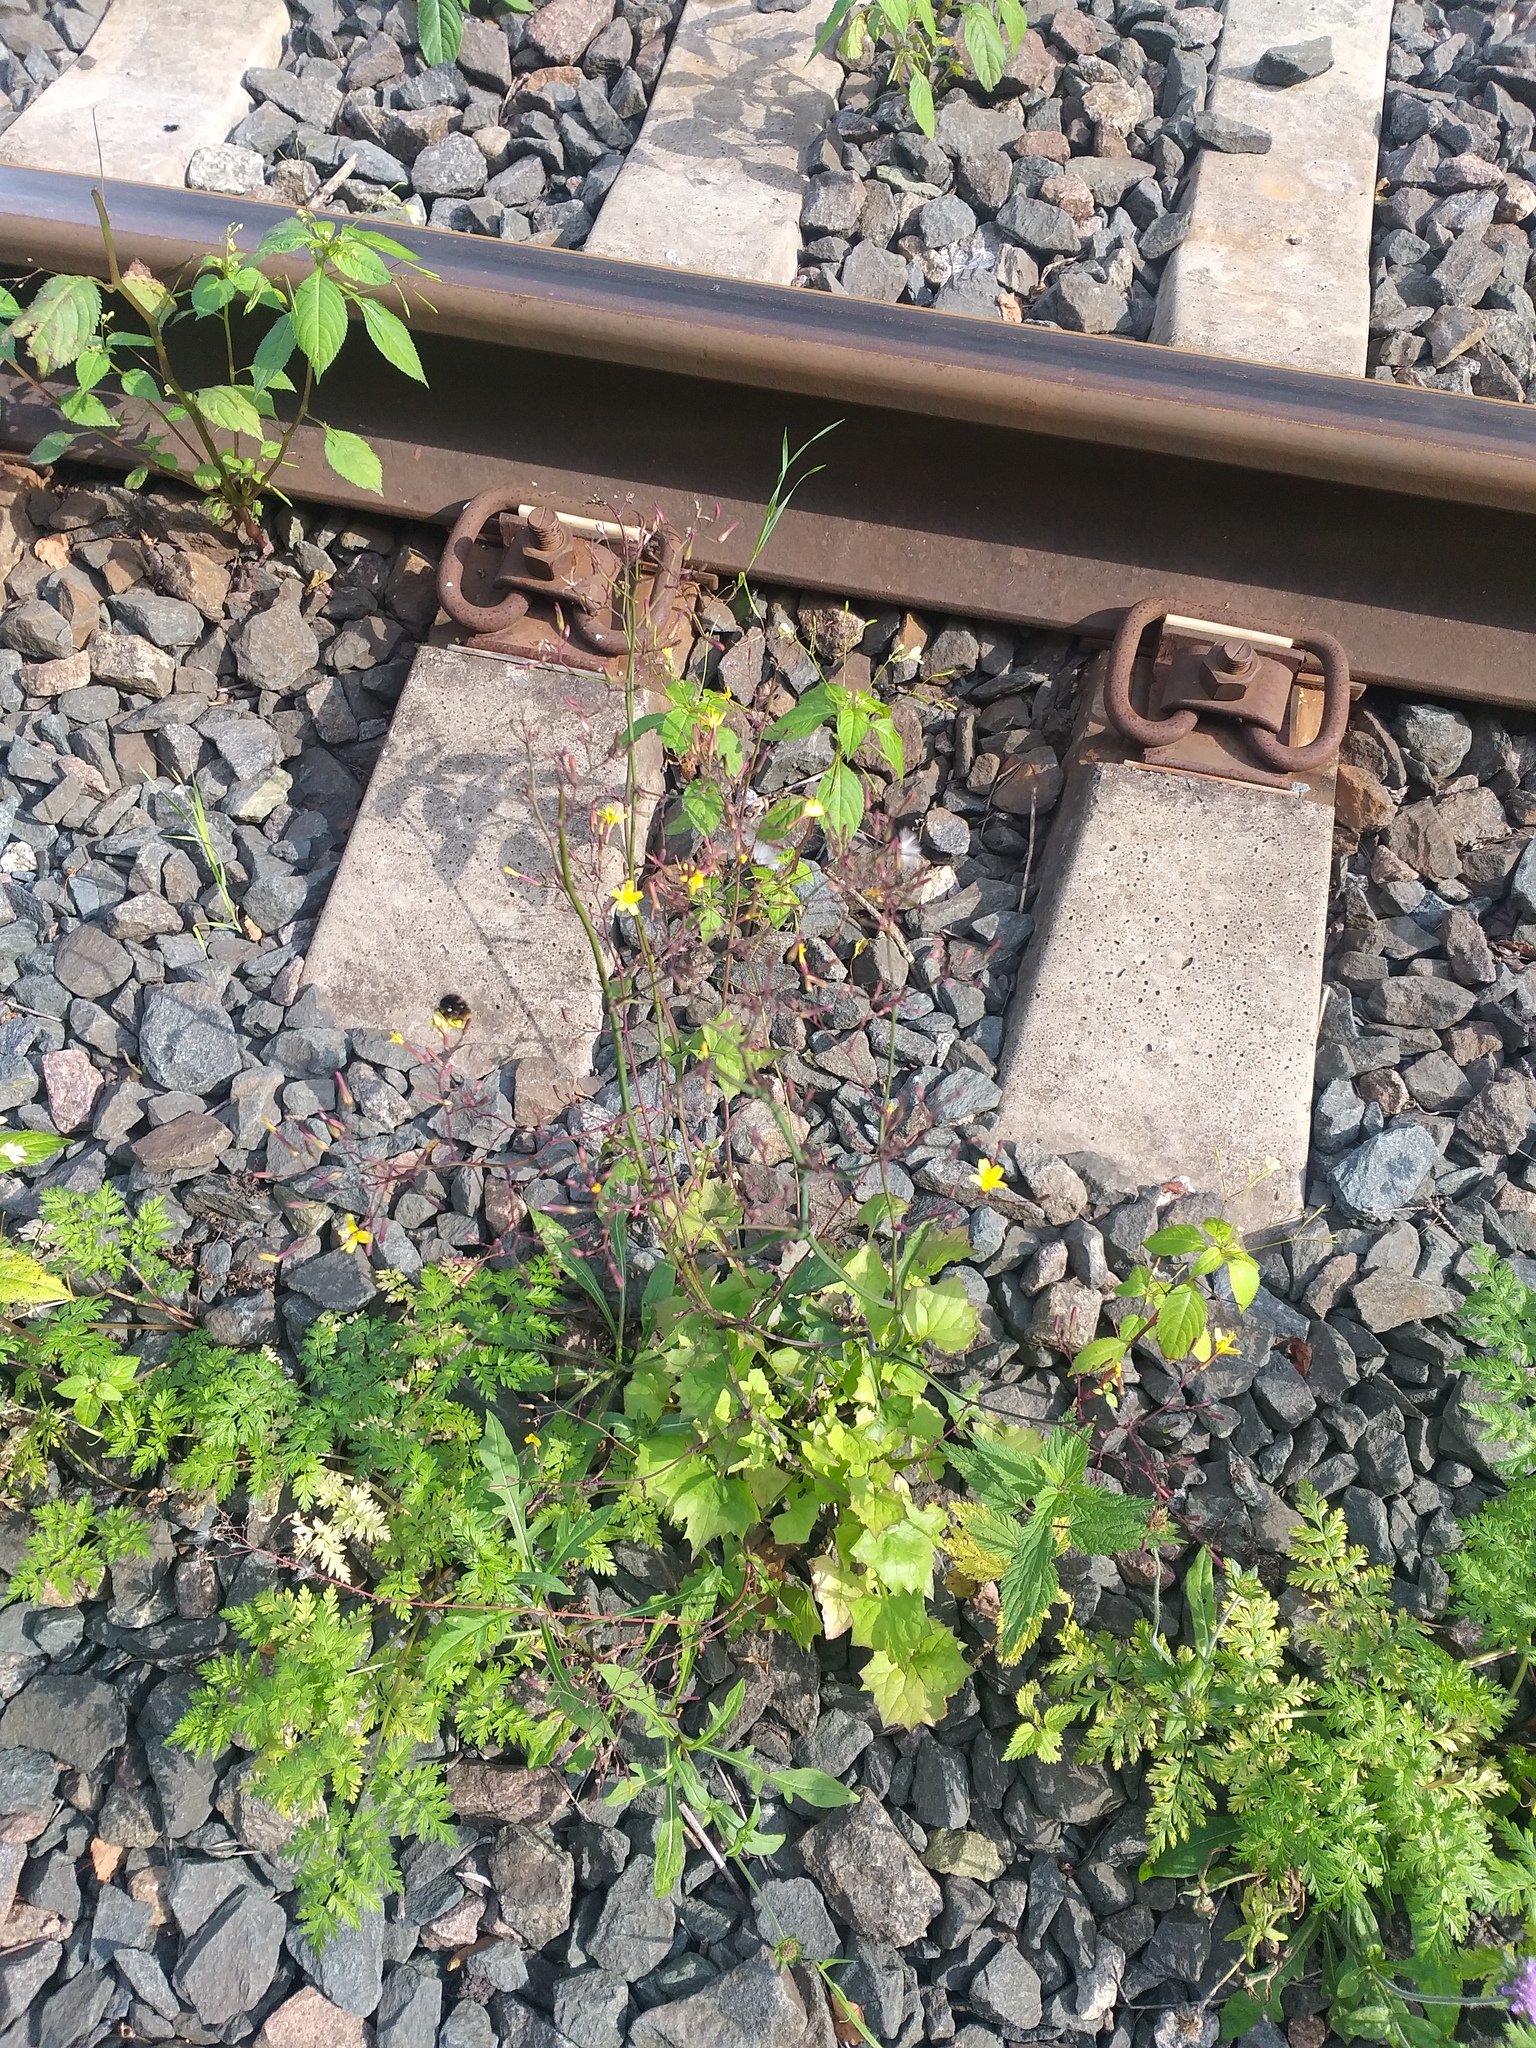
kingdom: Plantae
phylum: Tracheophyta
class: Magnoliopsida
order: Asterales
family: Asteraceae
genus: Mycelis
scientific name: Mycelis muralis
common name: Wall lettuce
